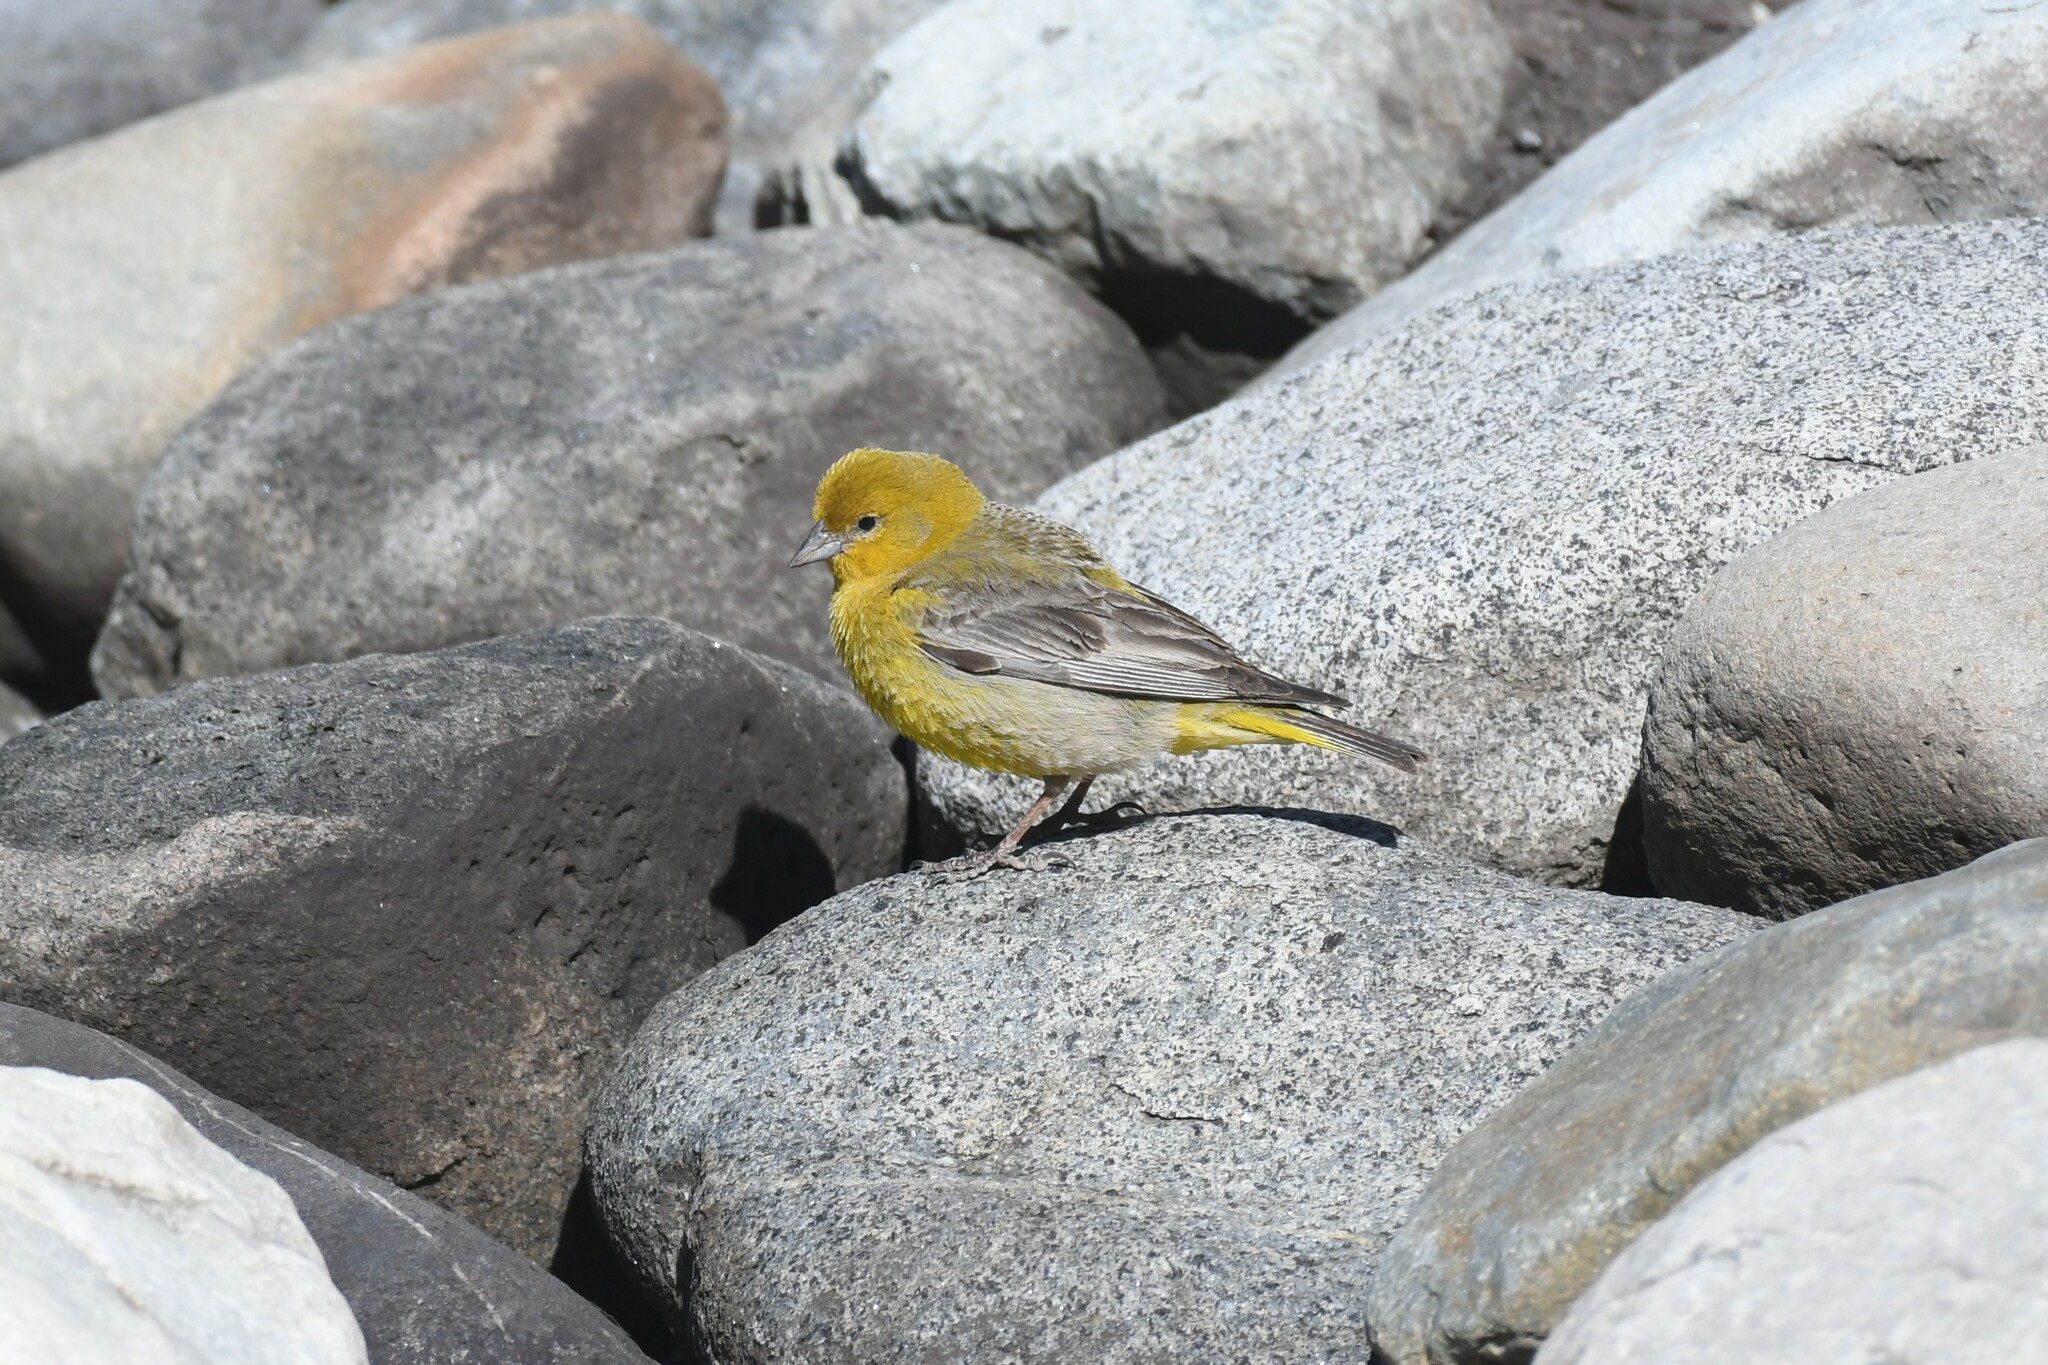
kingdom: Animalia
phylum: Chordata
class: Aves
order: Passeriformes
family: Thraupidae
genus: Sicalis
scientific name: Sicalis auriventris
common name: Greater yellow finch
